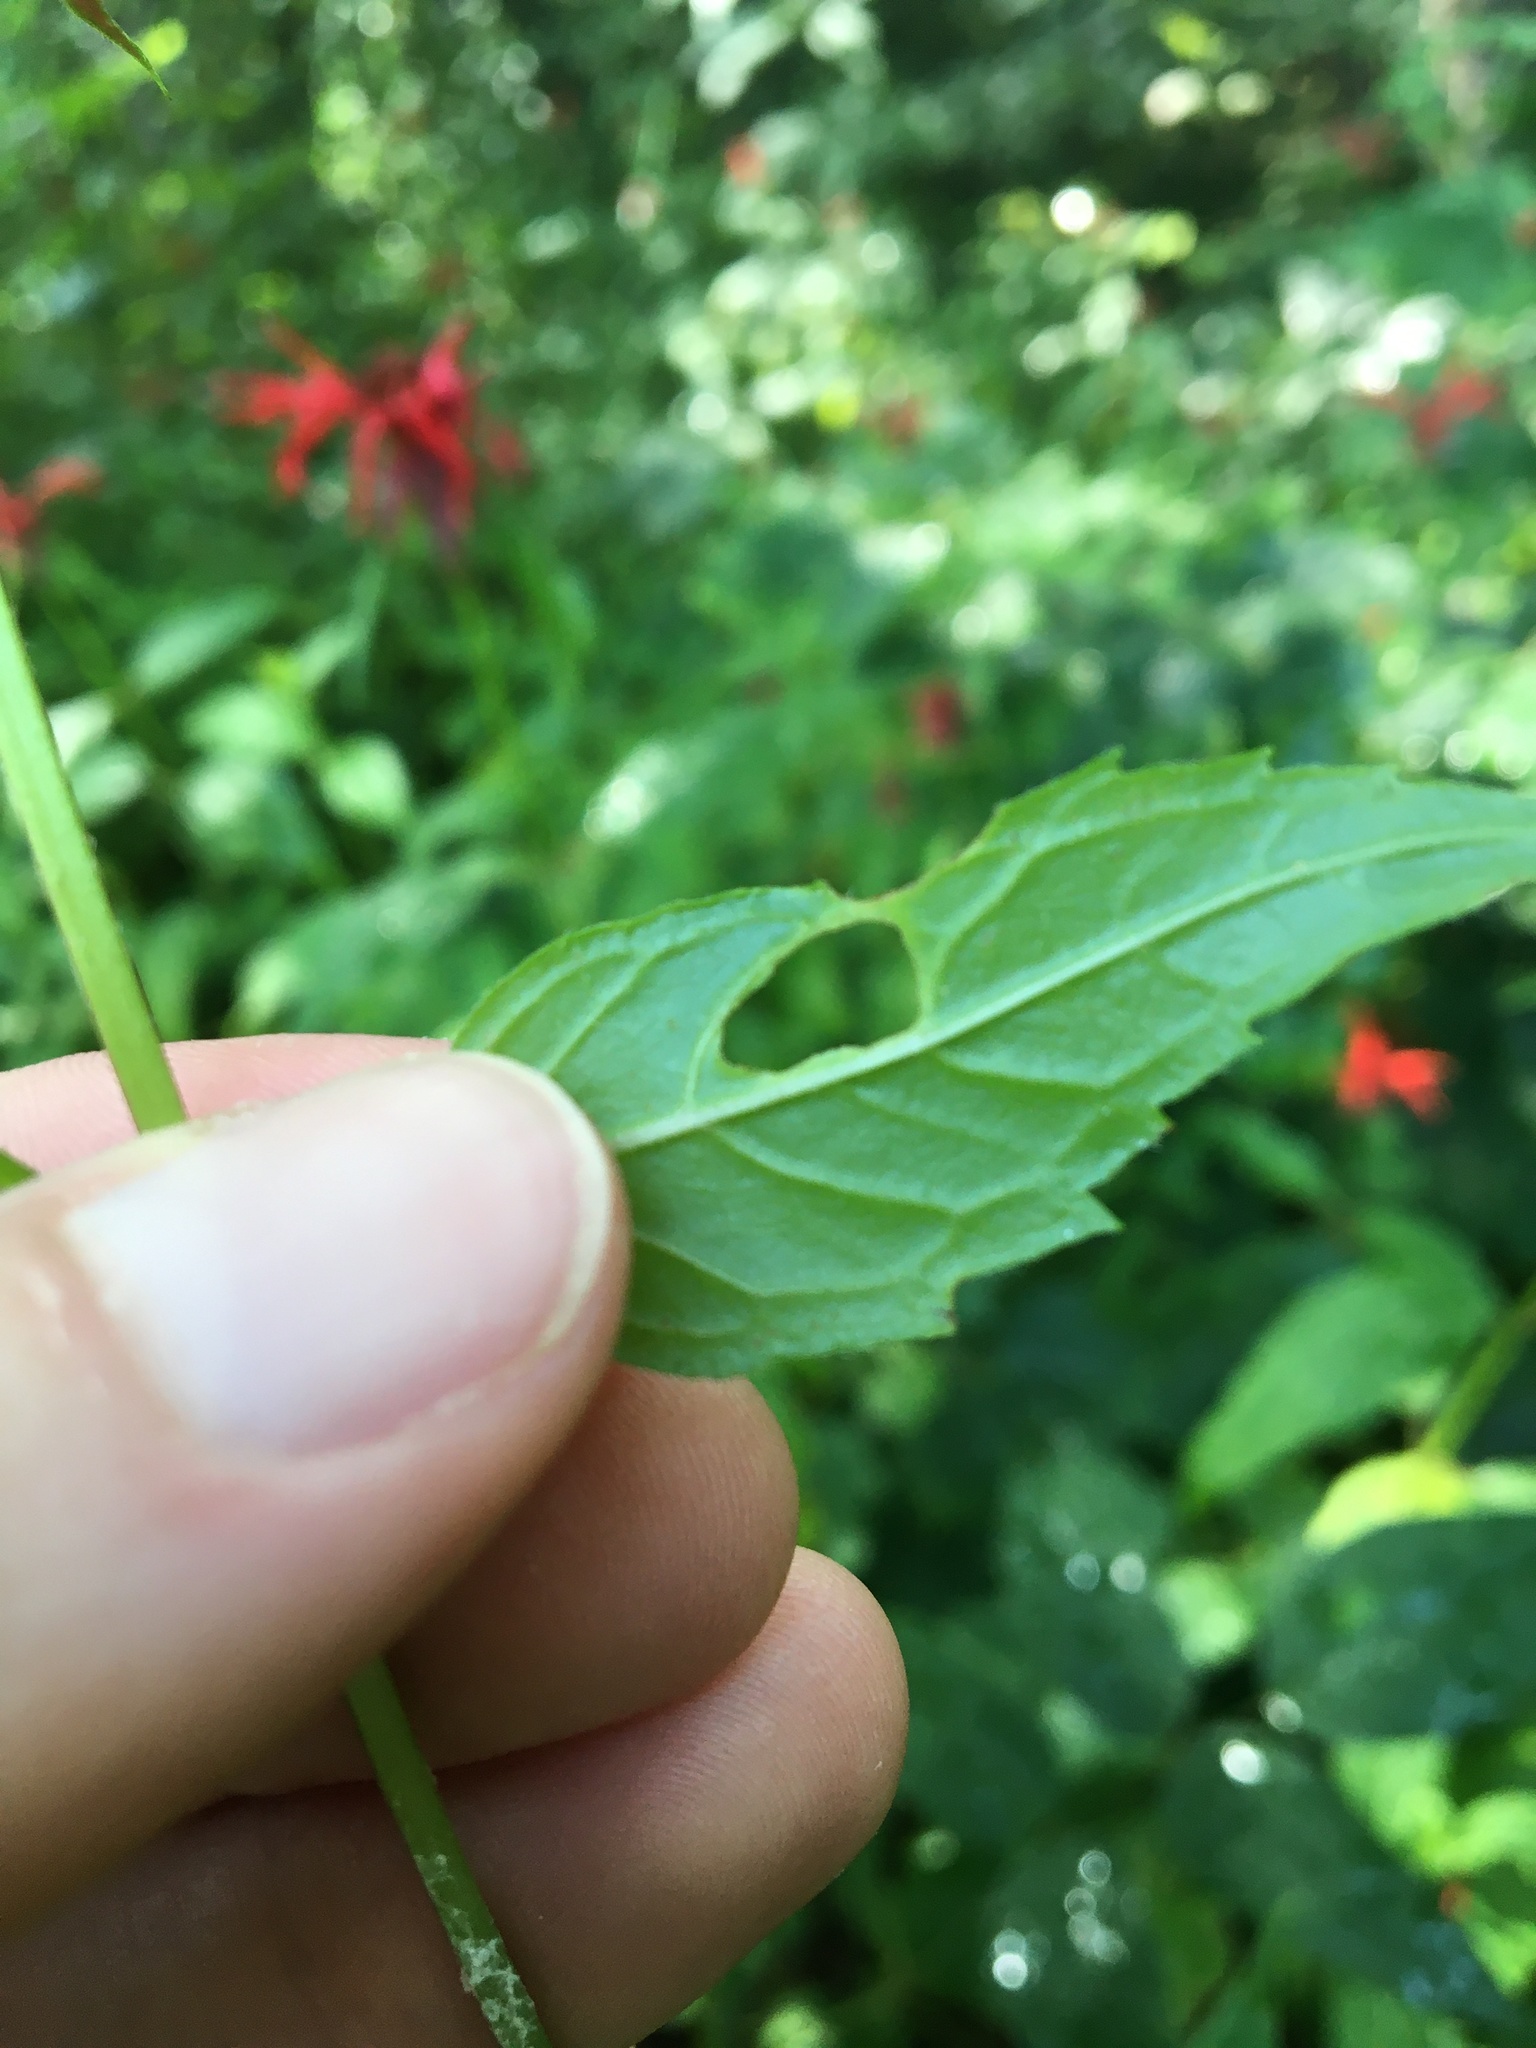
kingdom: Plantae
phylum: Tracheophyta
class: Magnoliopsida
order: Lamiales
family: Lamiaceae
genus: Monarda
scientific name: Monarda didyma
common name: Beebalm
